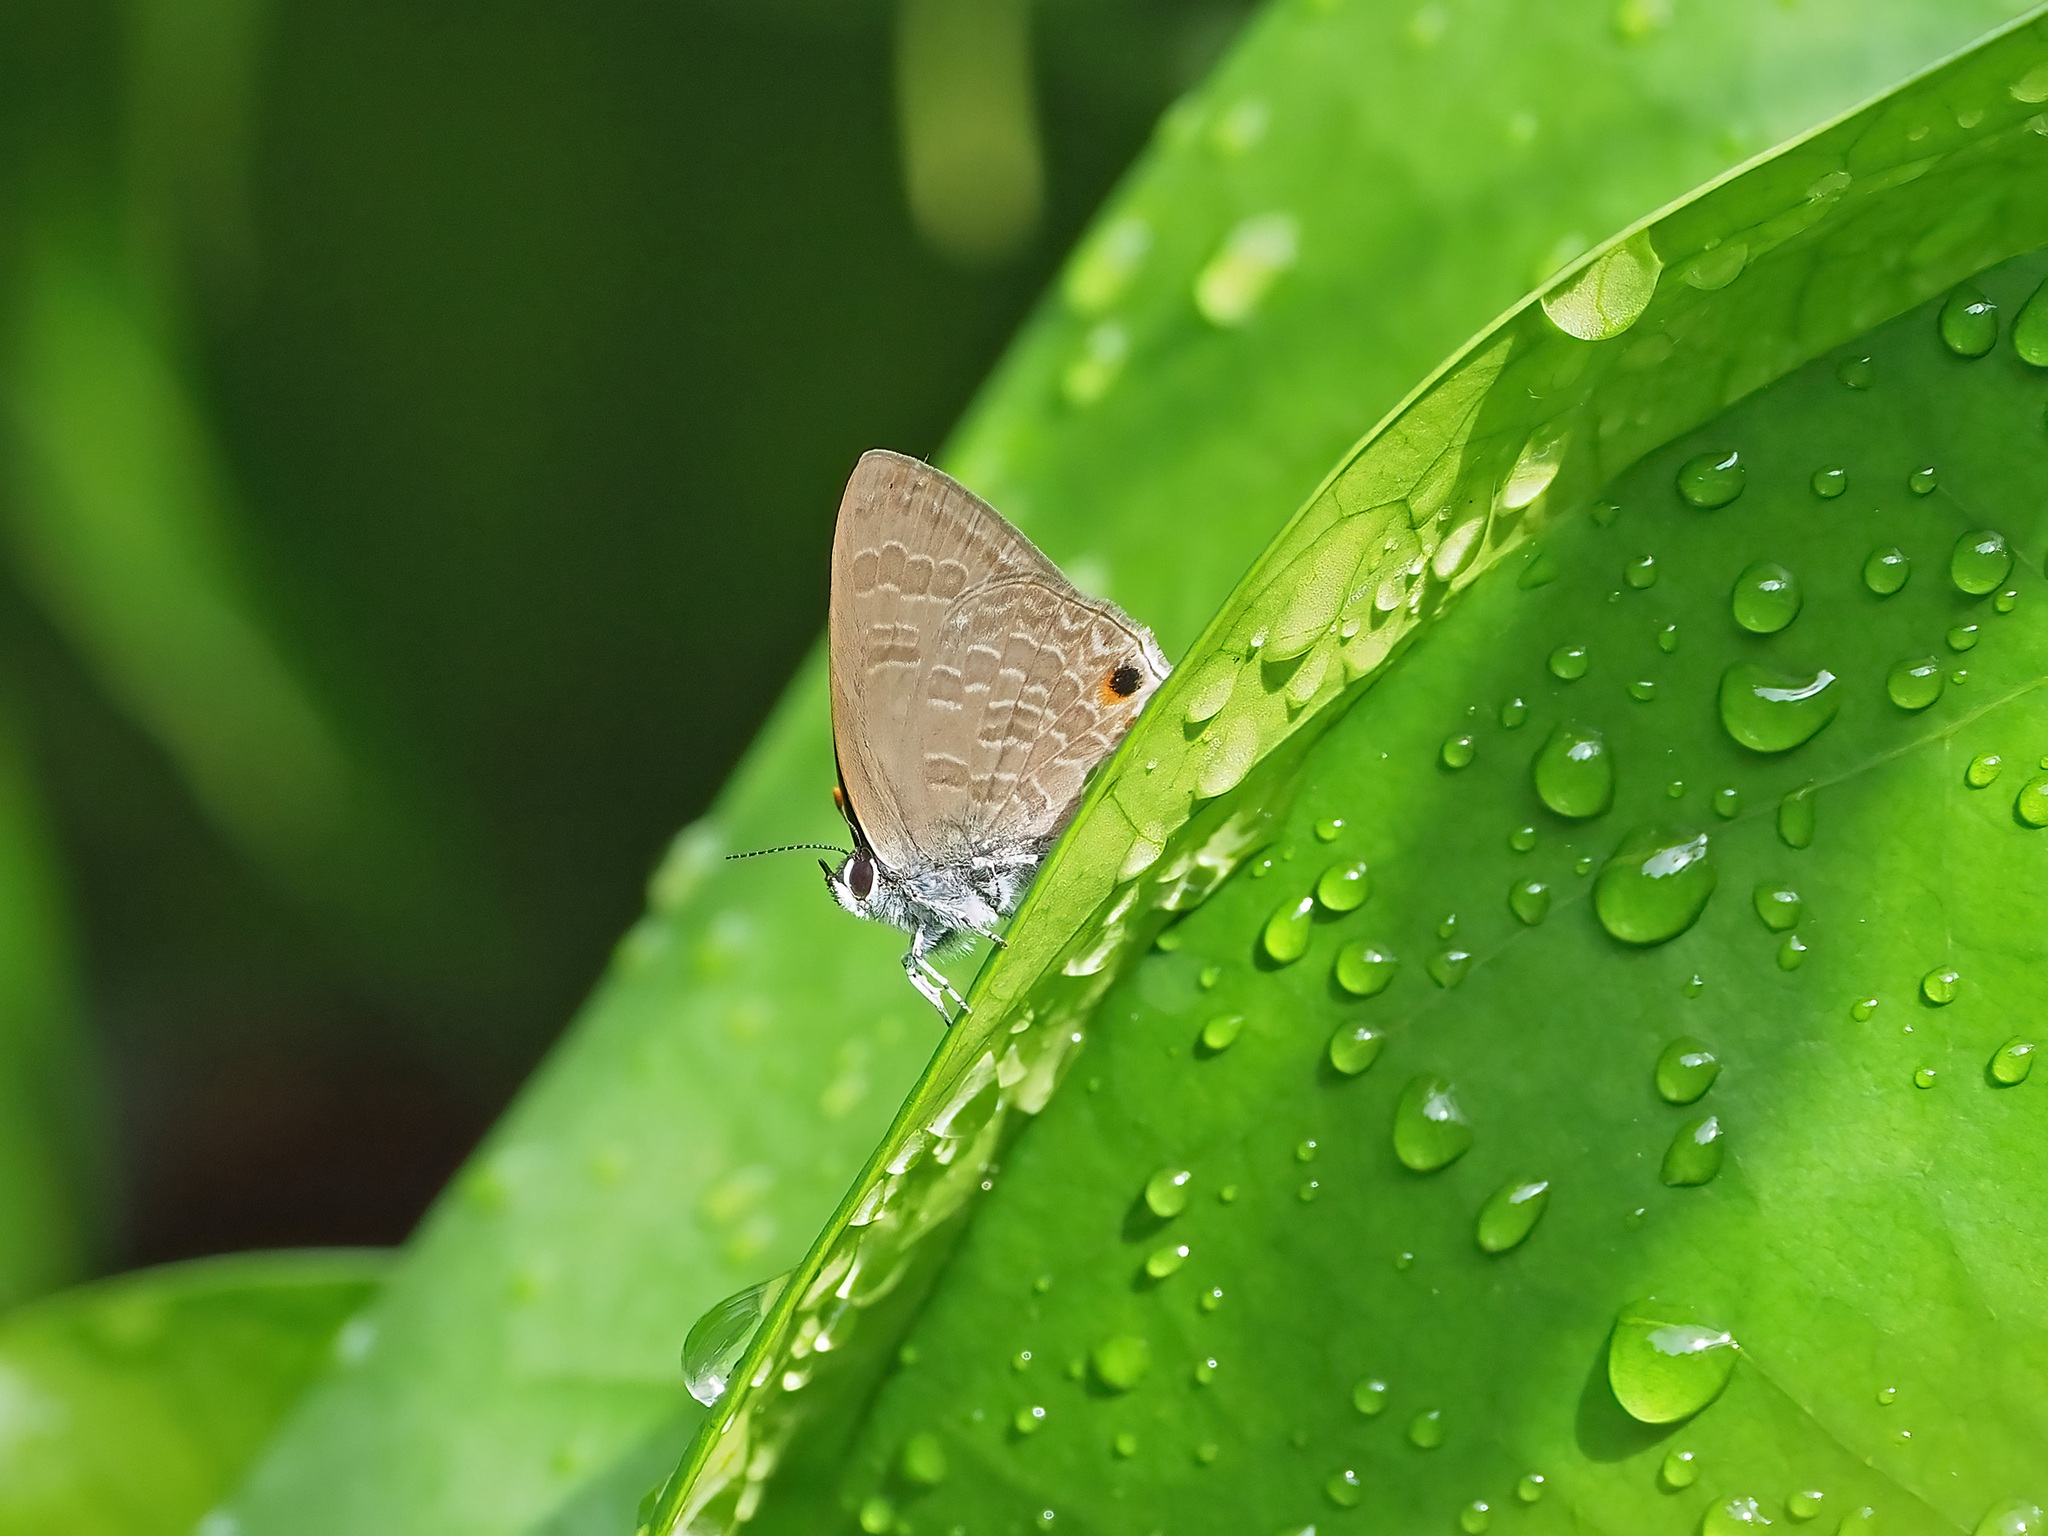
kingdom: Animalia
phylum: Arthropoda
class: Insecta
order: Lepidoptera
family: Lycaenidae
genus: Anthene
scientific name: Anthene emolus
